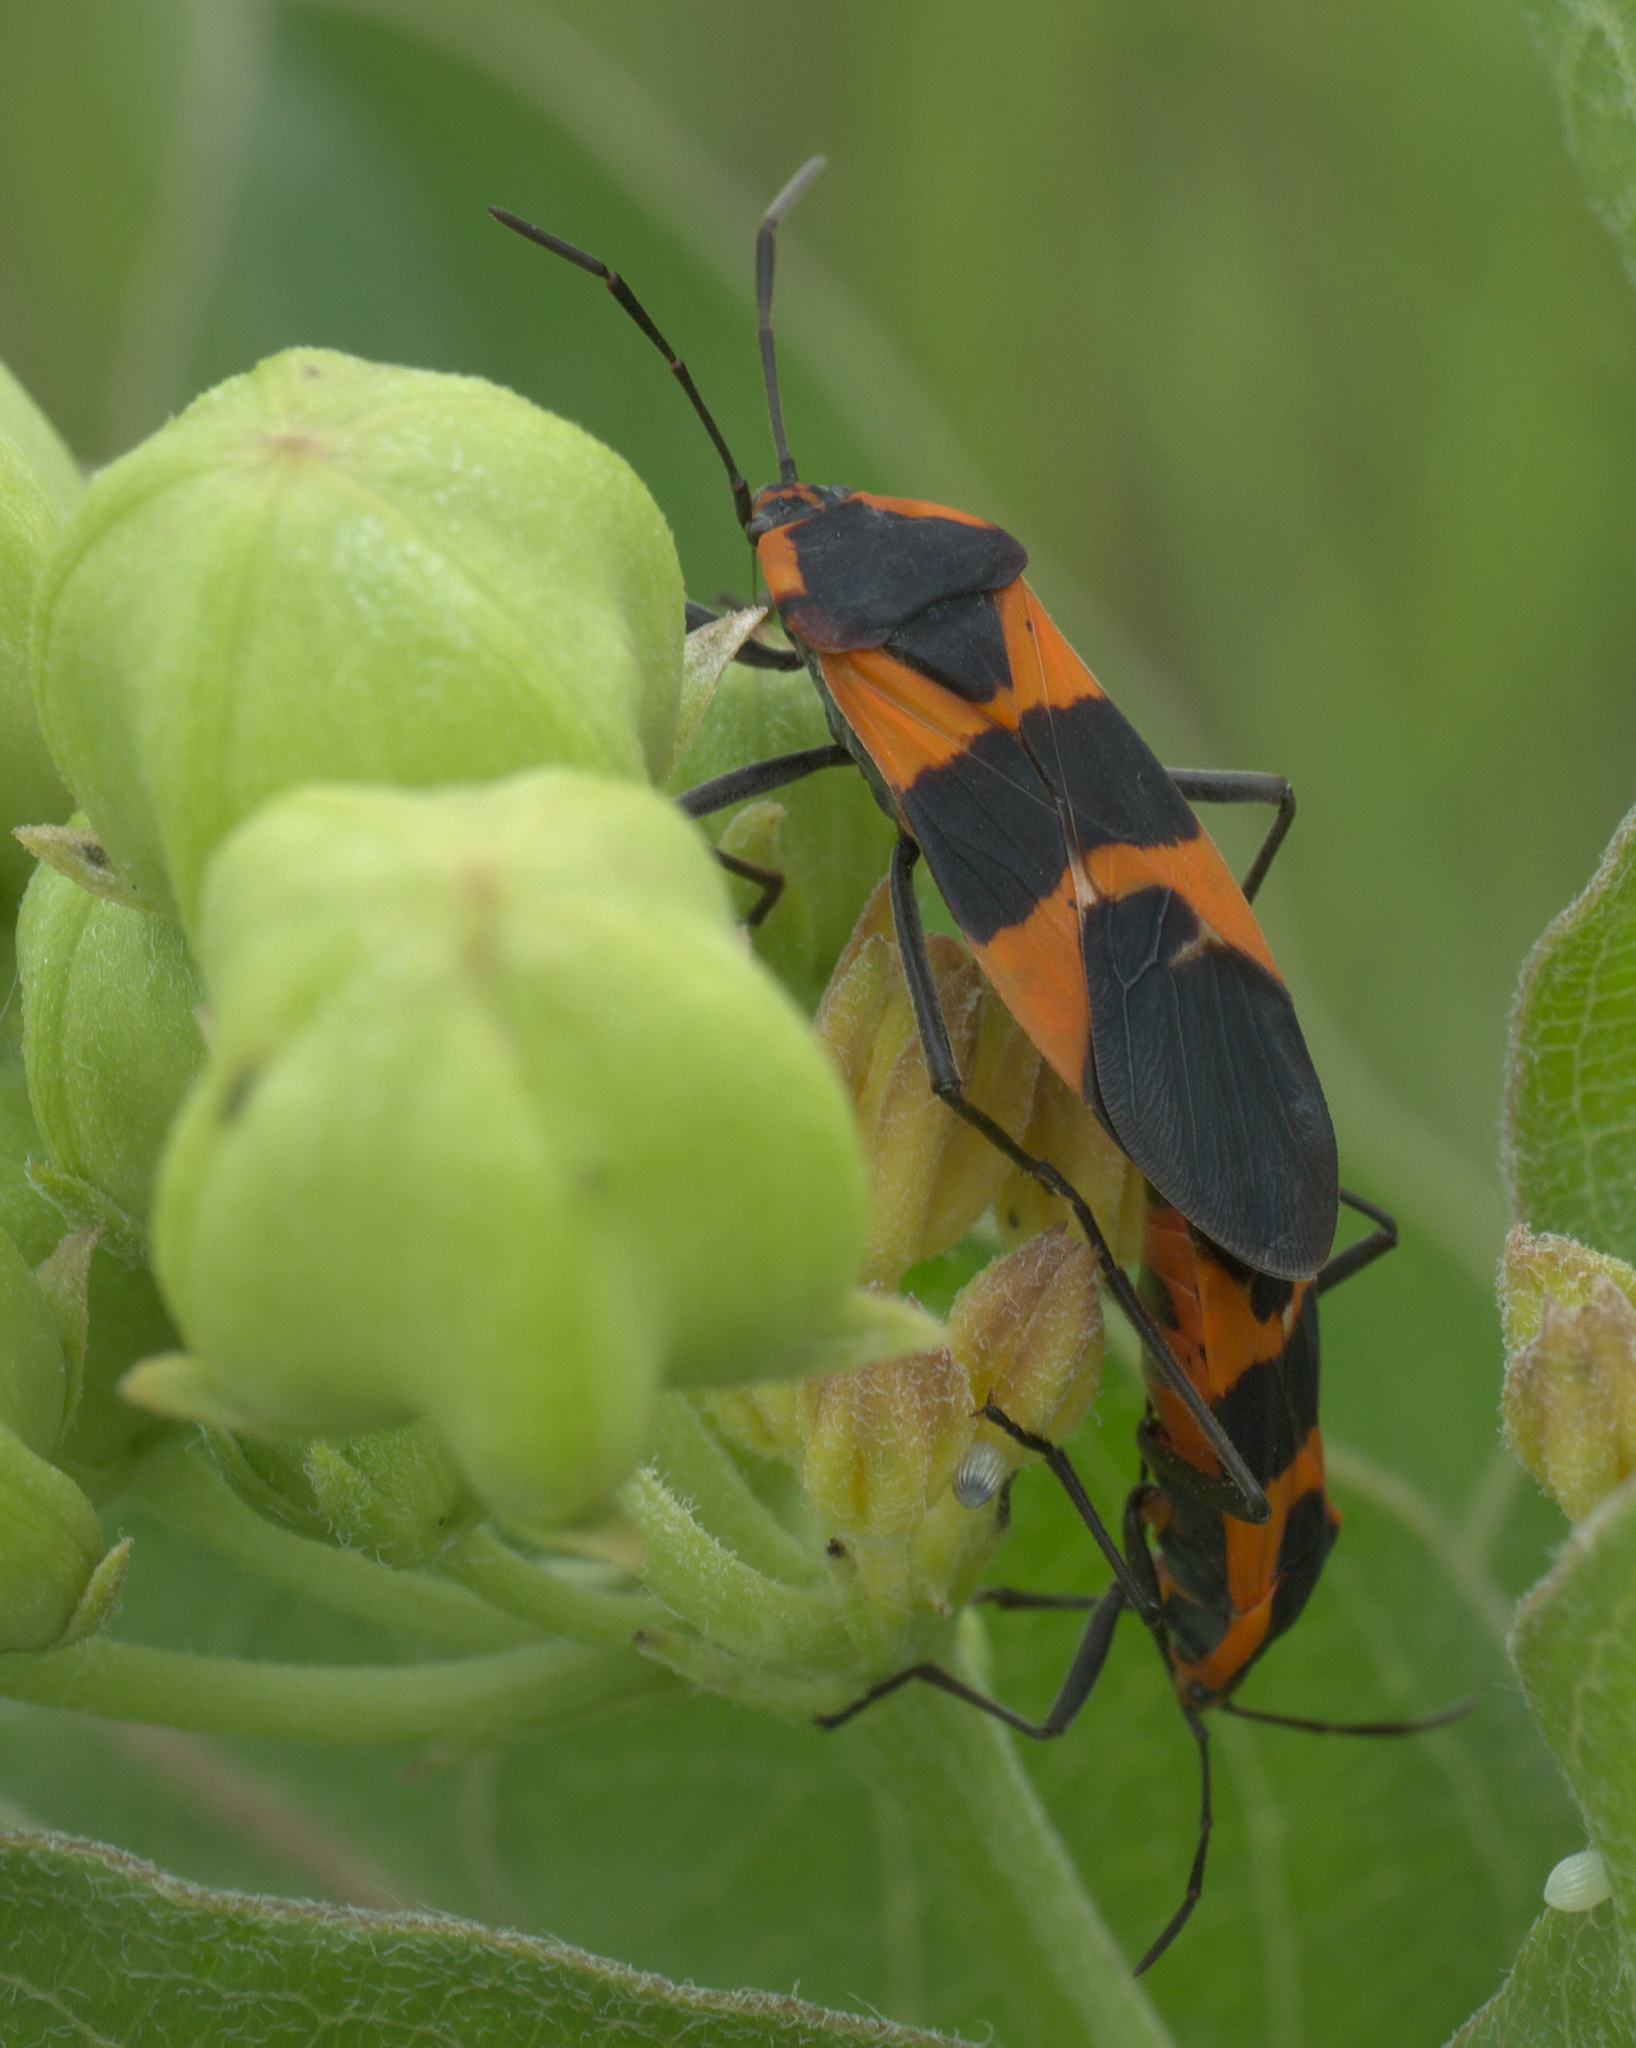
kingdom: Animalia
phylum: Arthropoda
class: Insecta
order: Hemiptera
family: Lygaeidae
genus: Oncopeltus
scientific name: Oncopeltus fasciatus
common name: Large milkweed bug
